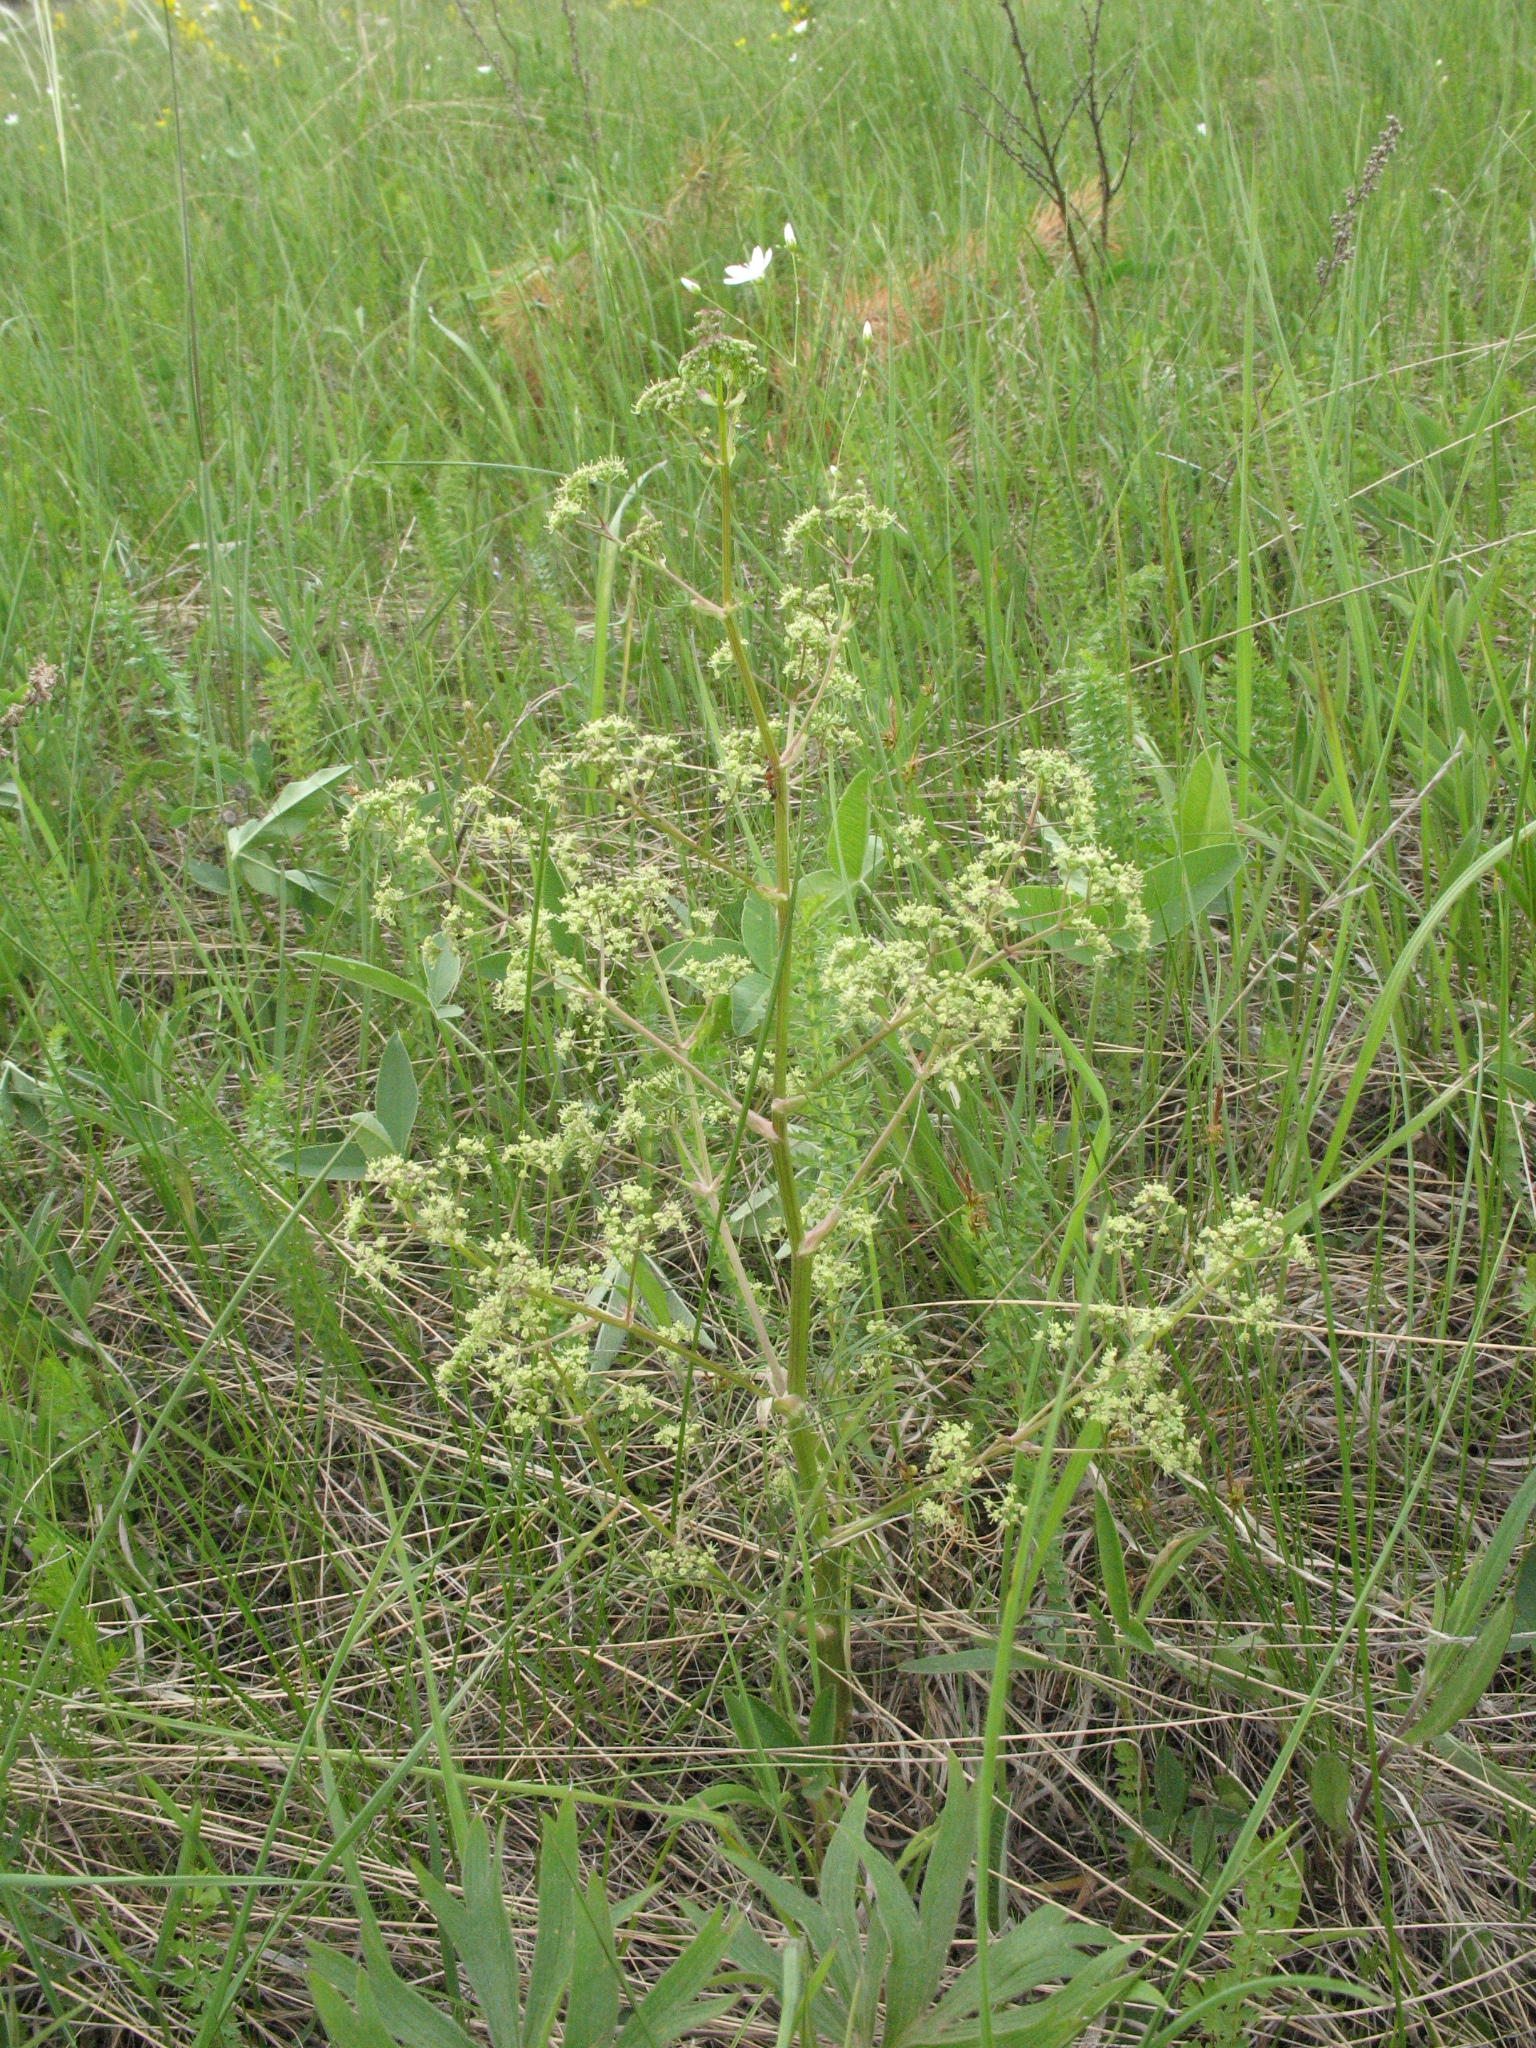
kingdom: Plantae
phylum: Tracheophyta
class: Magnoliopsida
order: Apiales
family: Apiaceae
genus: Trinia
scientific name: Trinia multicaulis
